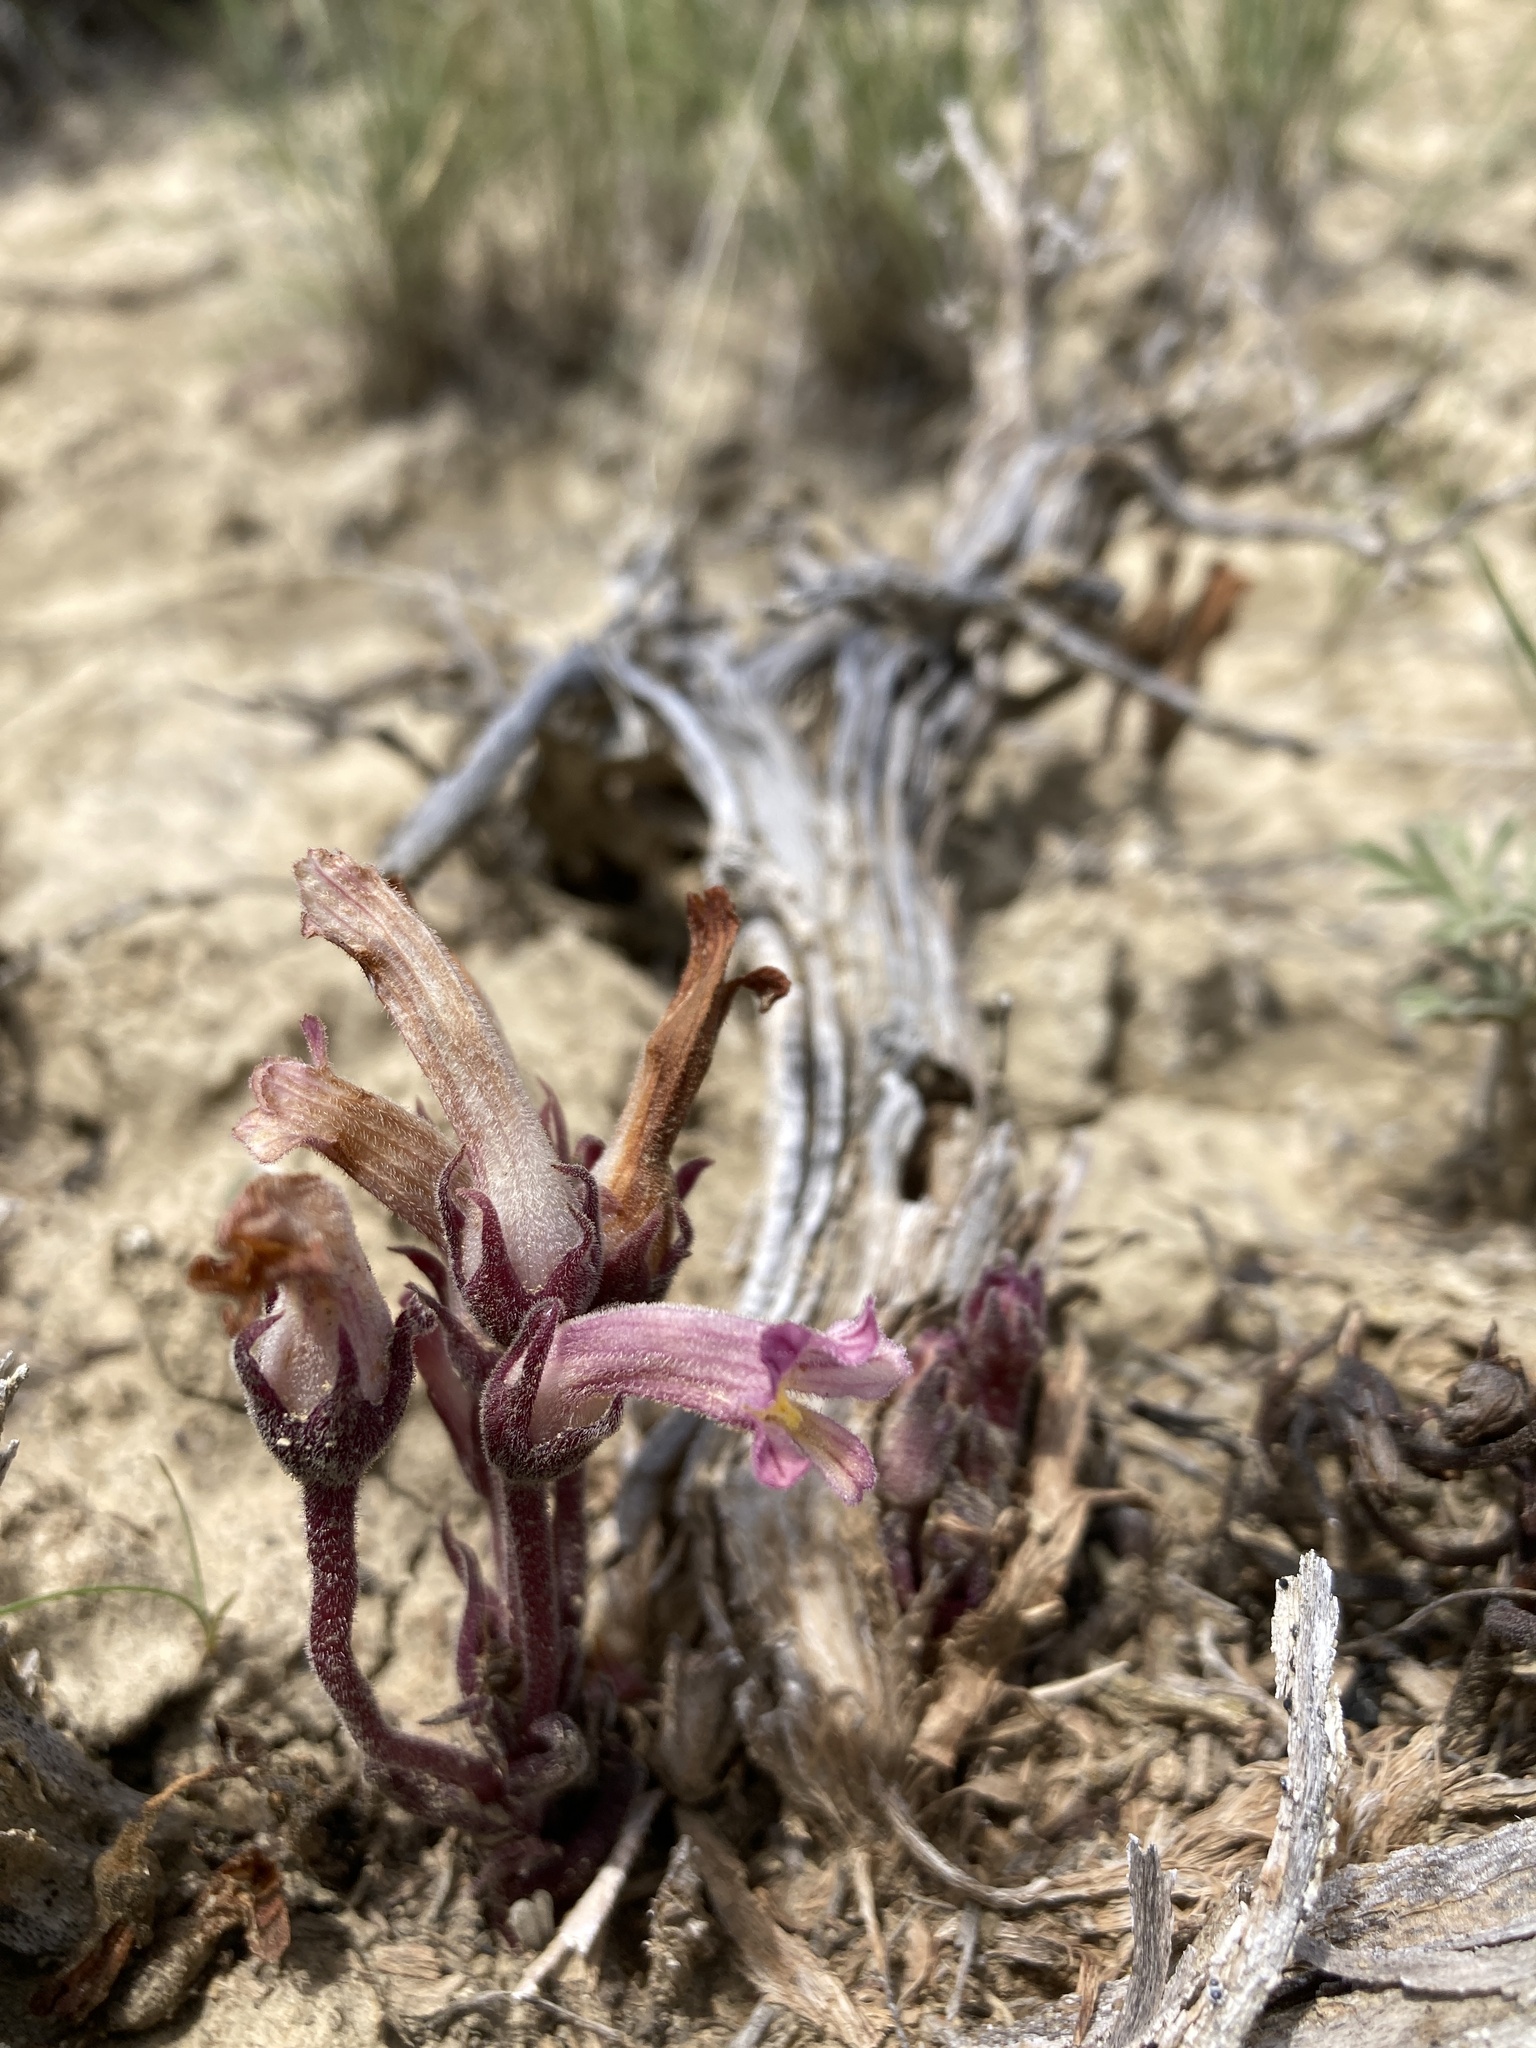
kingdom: Plantae
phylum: Tracheophyta
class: Magnoliopsida
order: Lamiales
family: Orobanchaceae
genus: Aphyllon
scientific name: Aphyllon fasciculatum
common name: Clustered broomrape
